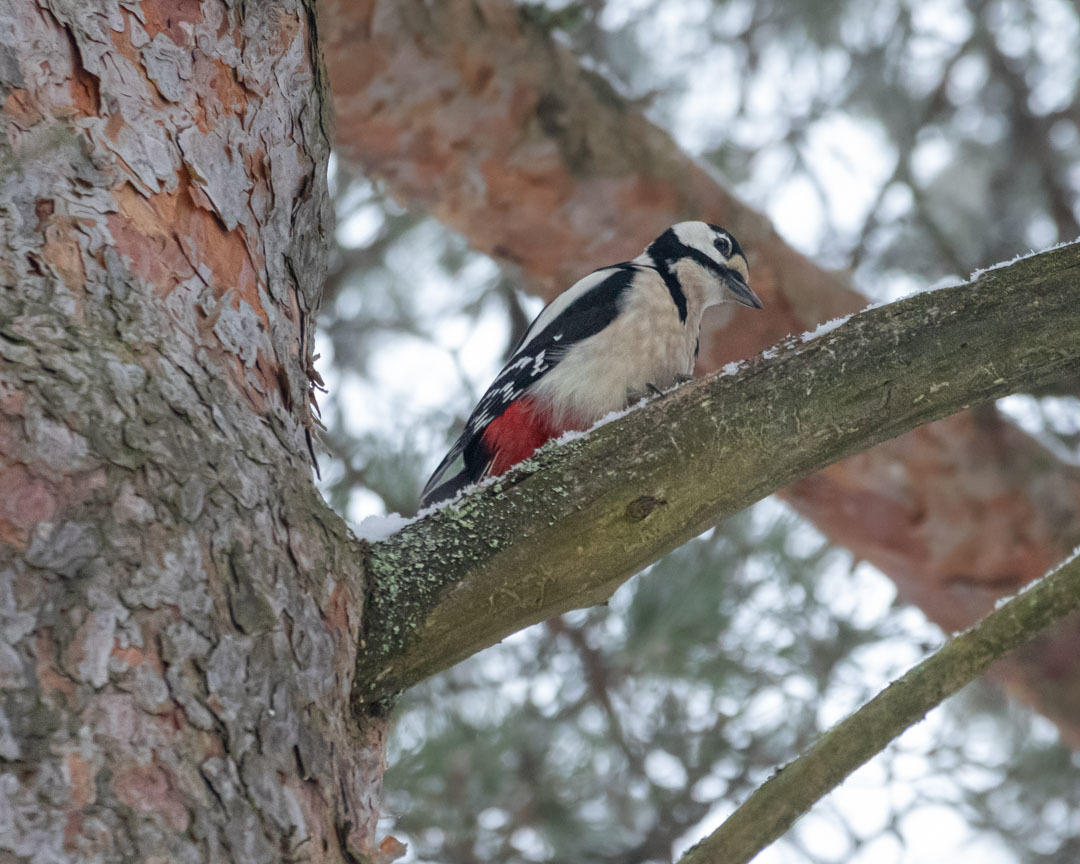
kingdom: Animalia
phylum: Chordata
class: Aves
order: Piciformes
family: Picidae
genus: Dendrocopos
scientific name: Dendrocopos major
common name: Great spotted woodpecker
